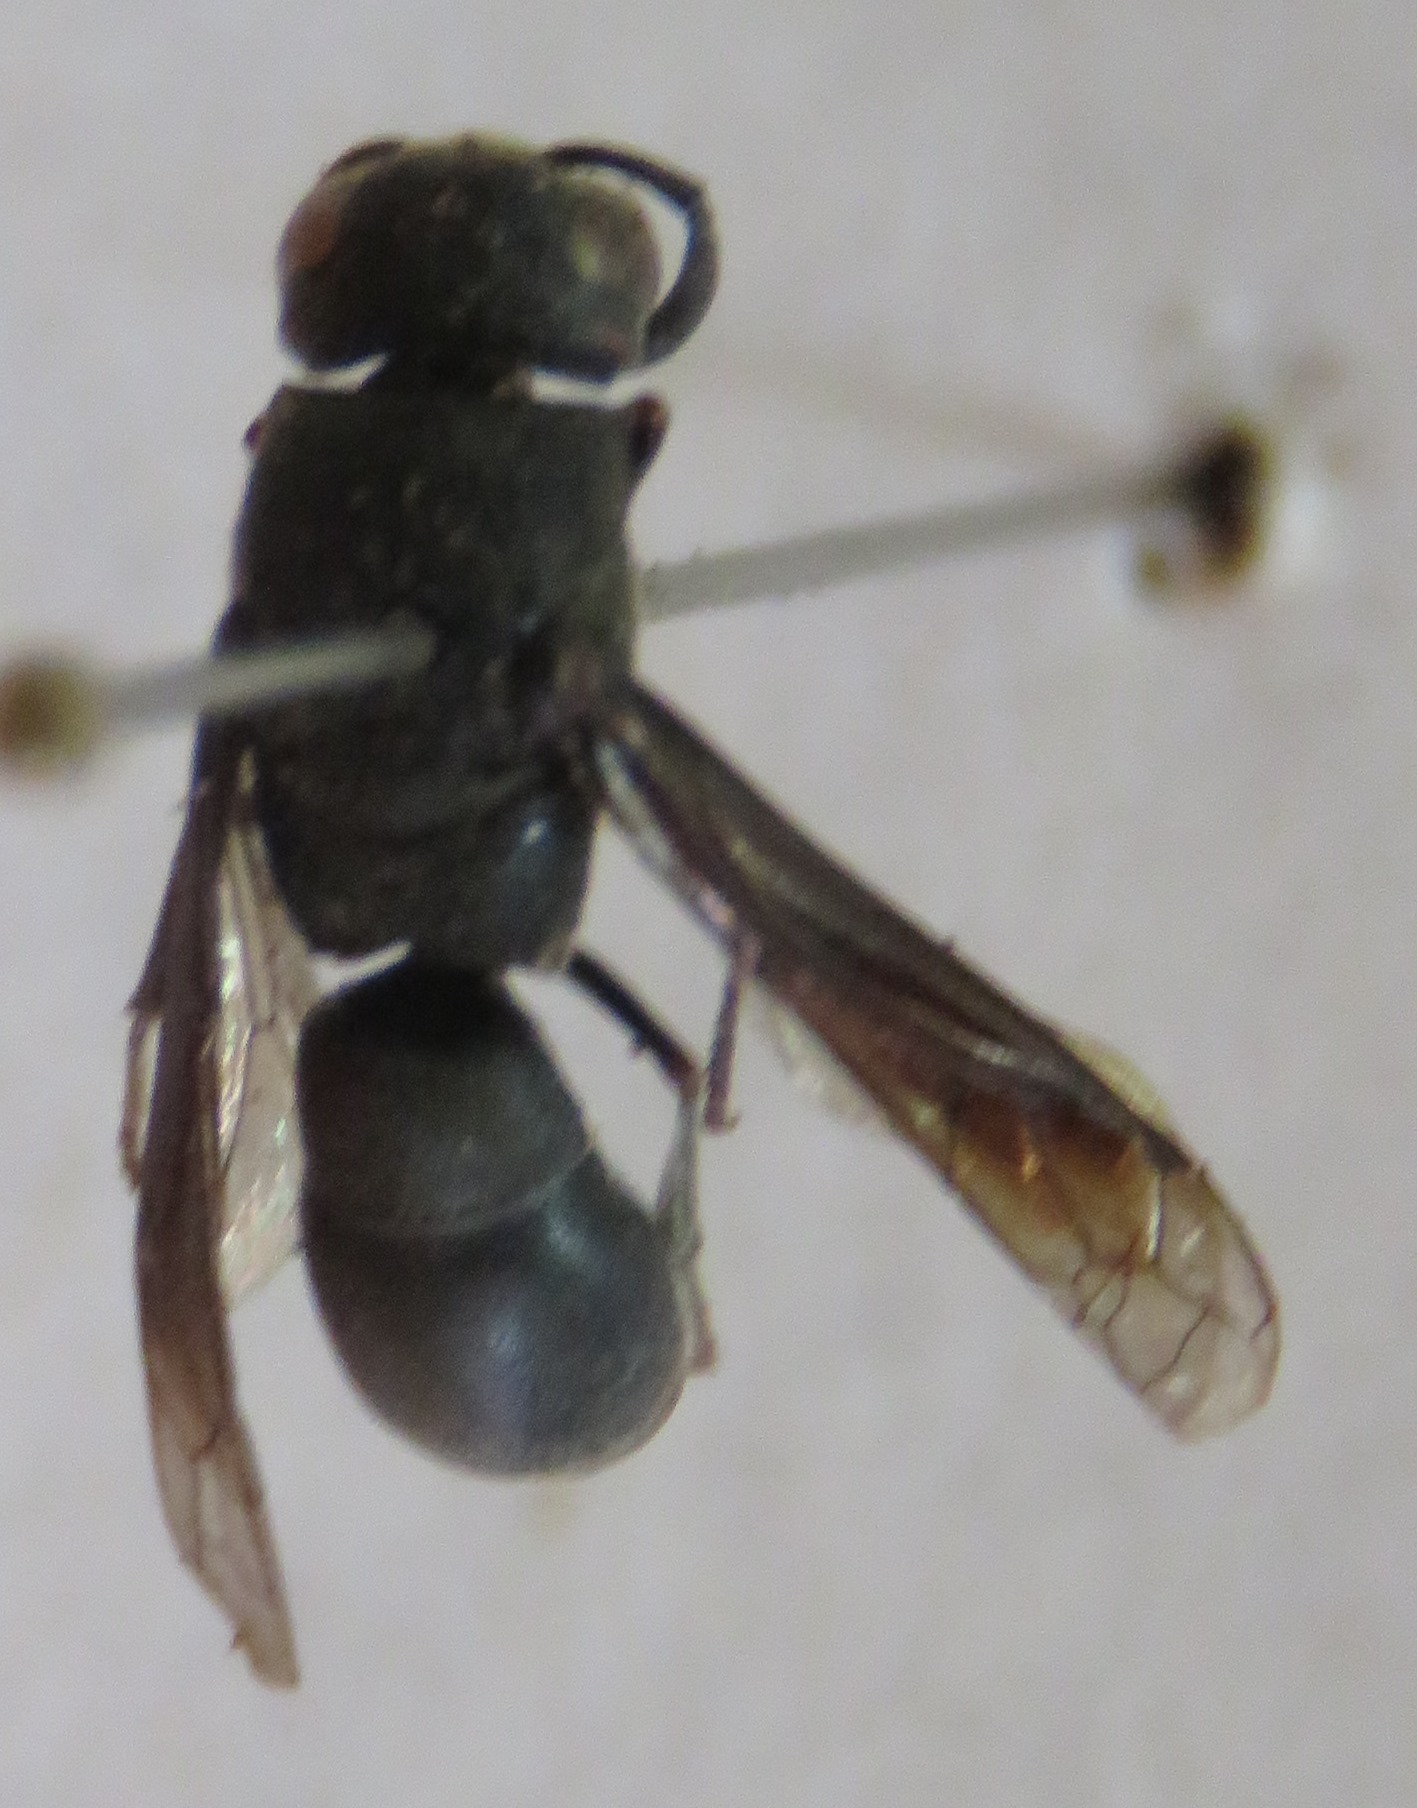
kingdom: Animalia
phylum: Arthropoda
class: Insecta
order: Hymenoptera
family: Eumenidae
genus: Hypalastoroides
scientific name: Hypalastoroides melanosoma
